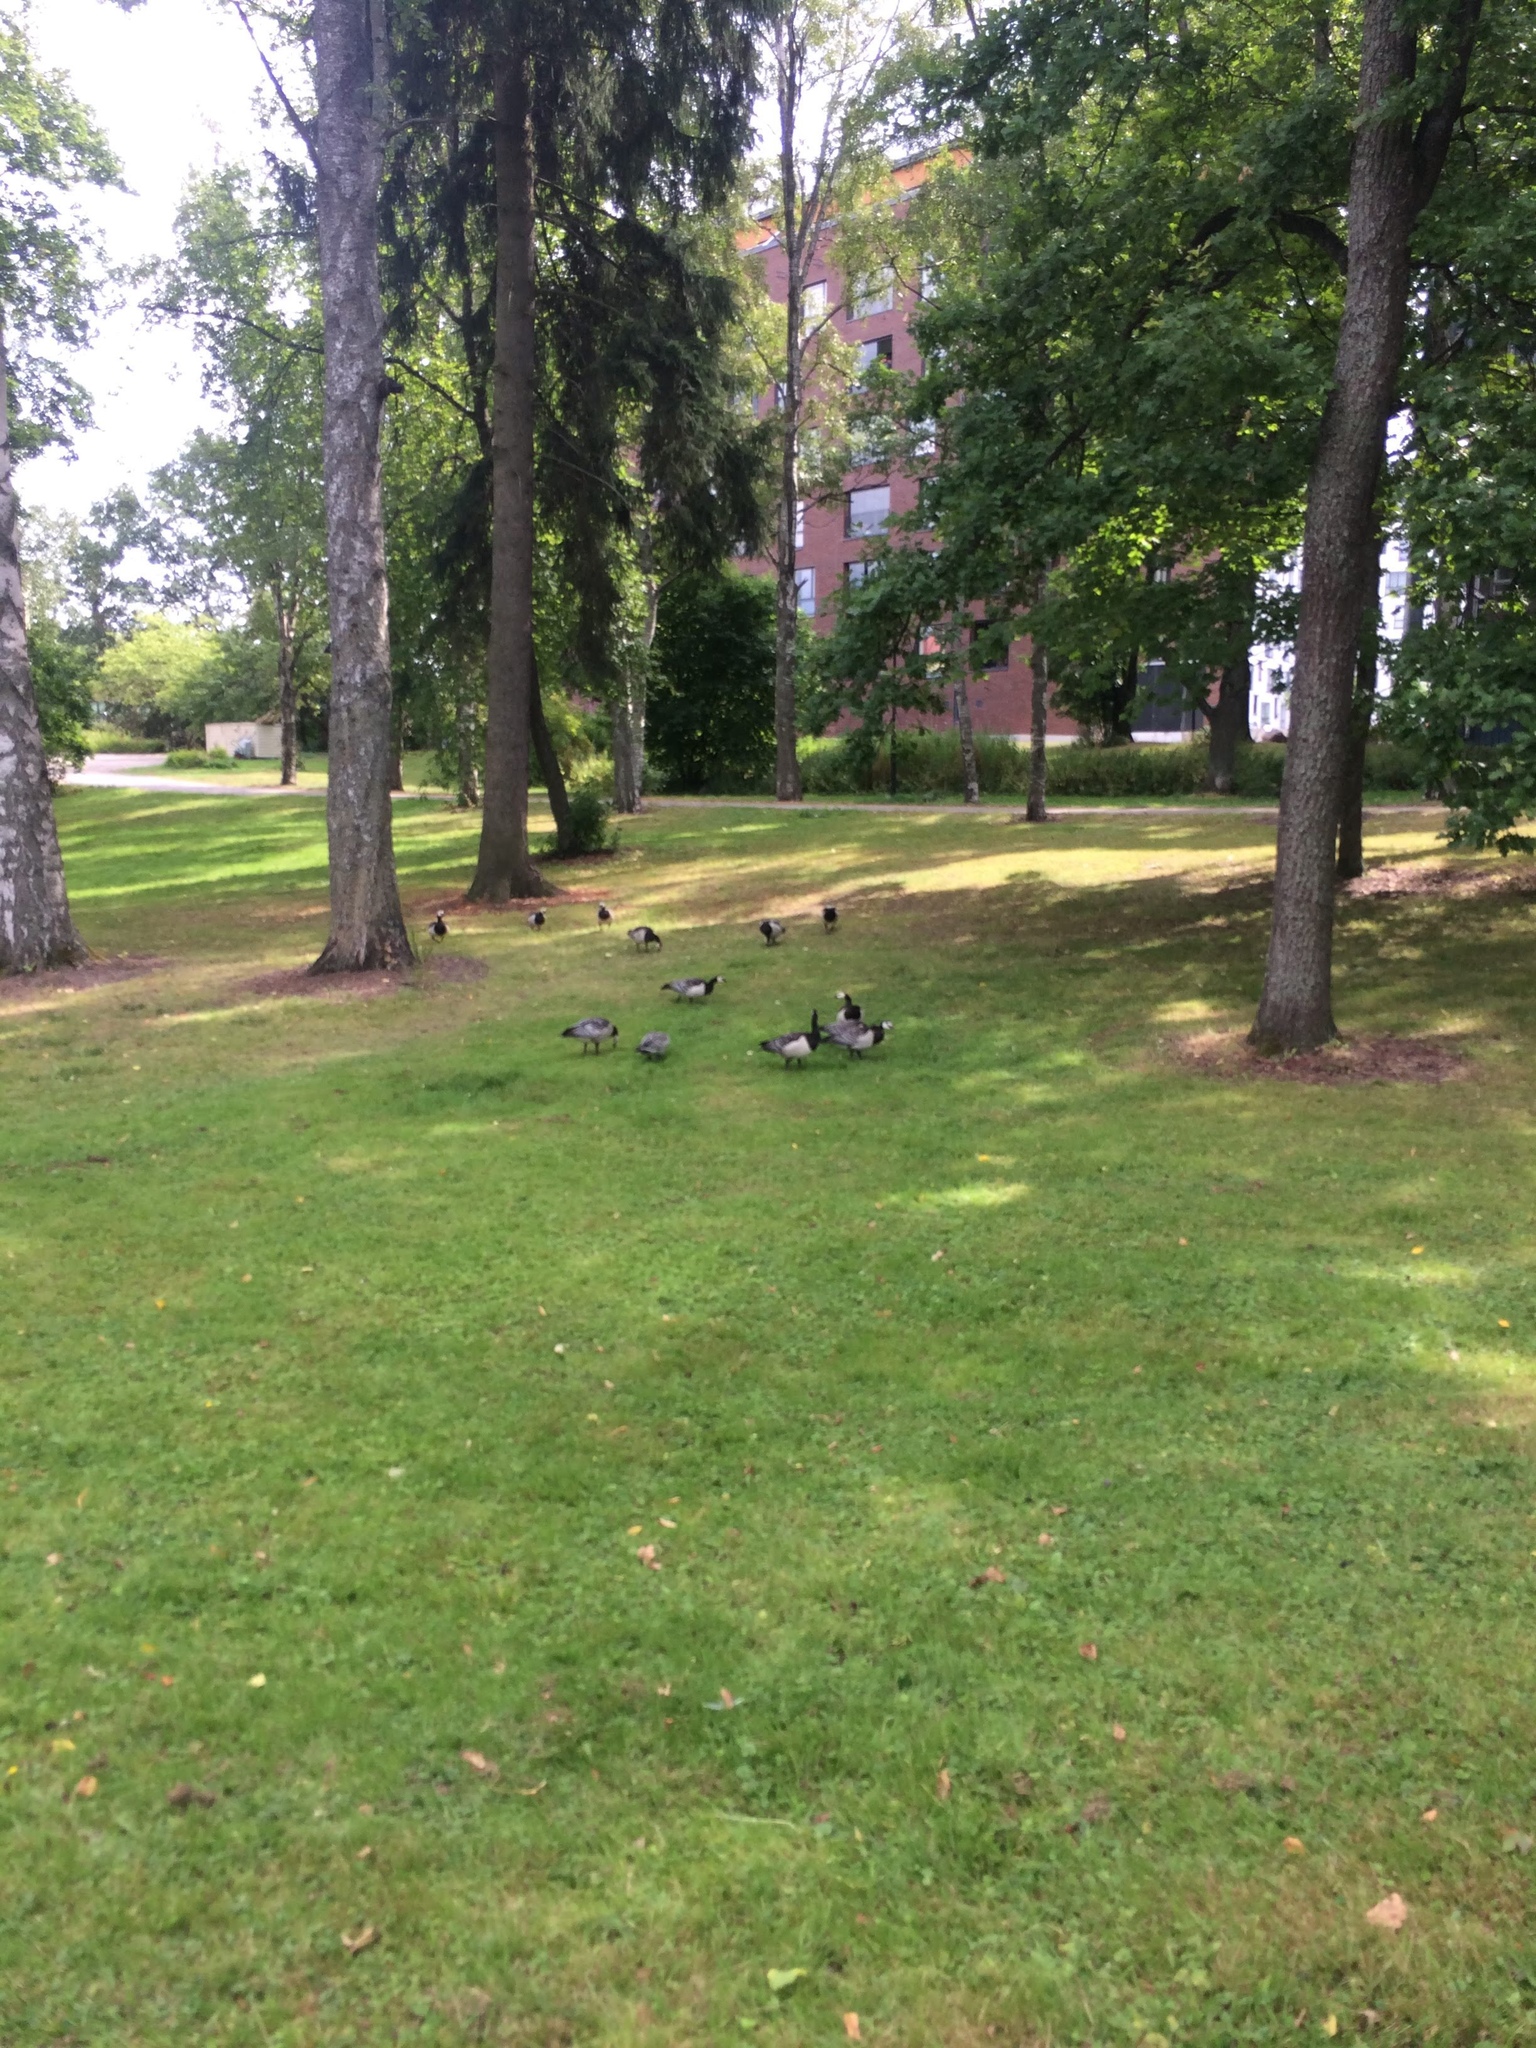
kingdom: Animalia
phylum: Chordata
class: Aves
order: Anseriformes
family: Anatidae
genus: Branta
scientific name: Branta leucopsis
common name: Barnacle goose
